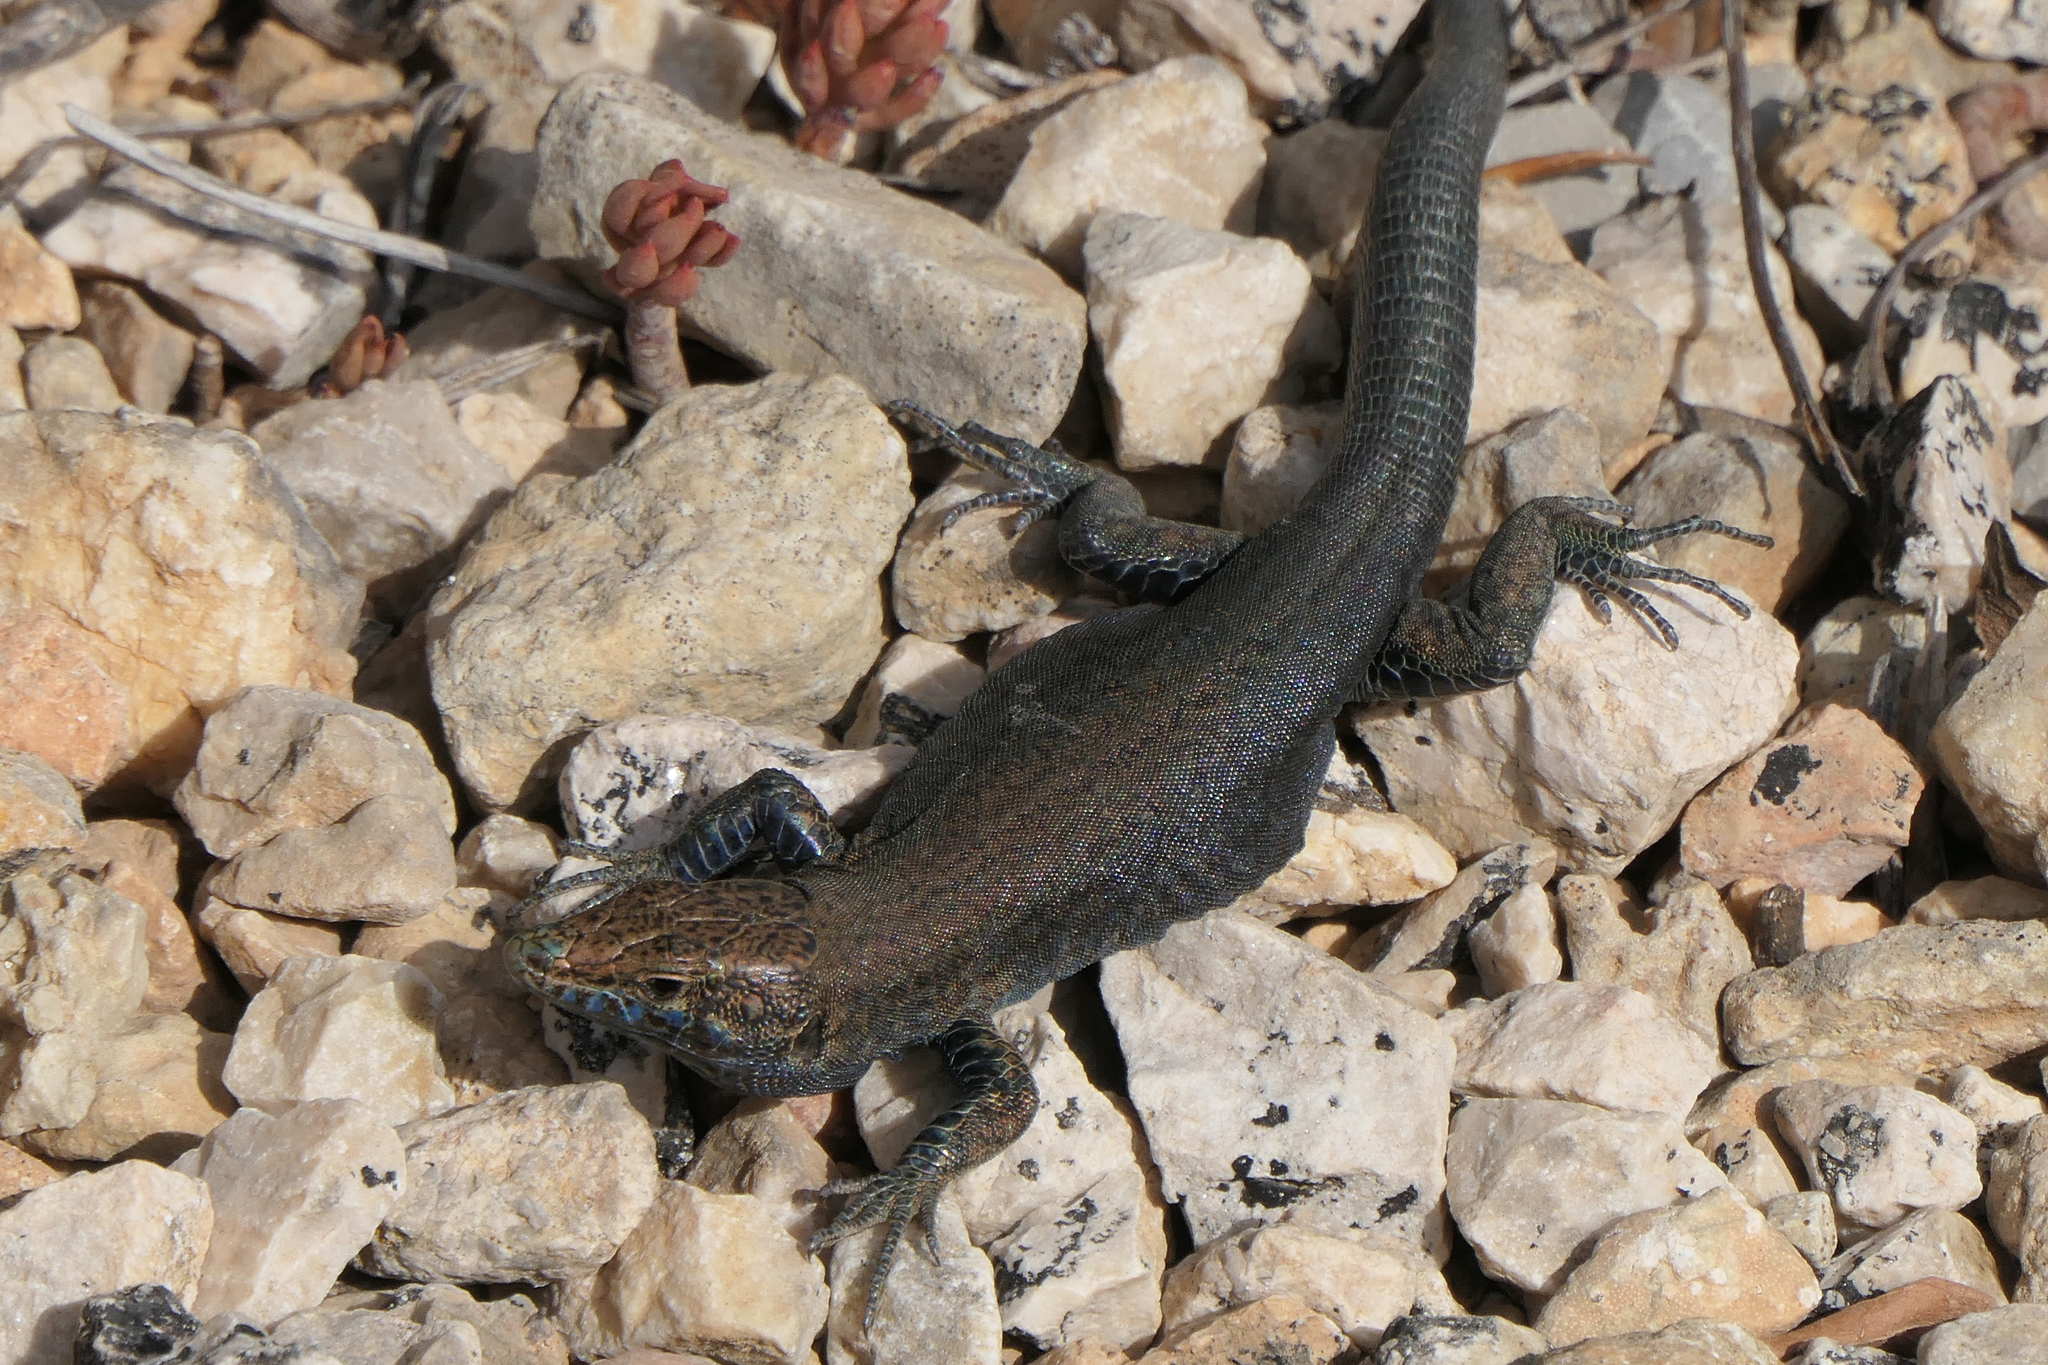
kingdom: Animalia
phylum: Chordata
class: Squamata
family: Lacertidae
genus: Podarcis
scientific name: Podarcis lilfordi
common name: Belearic lizard
